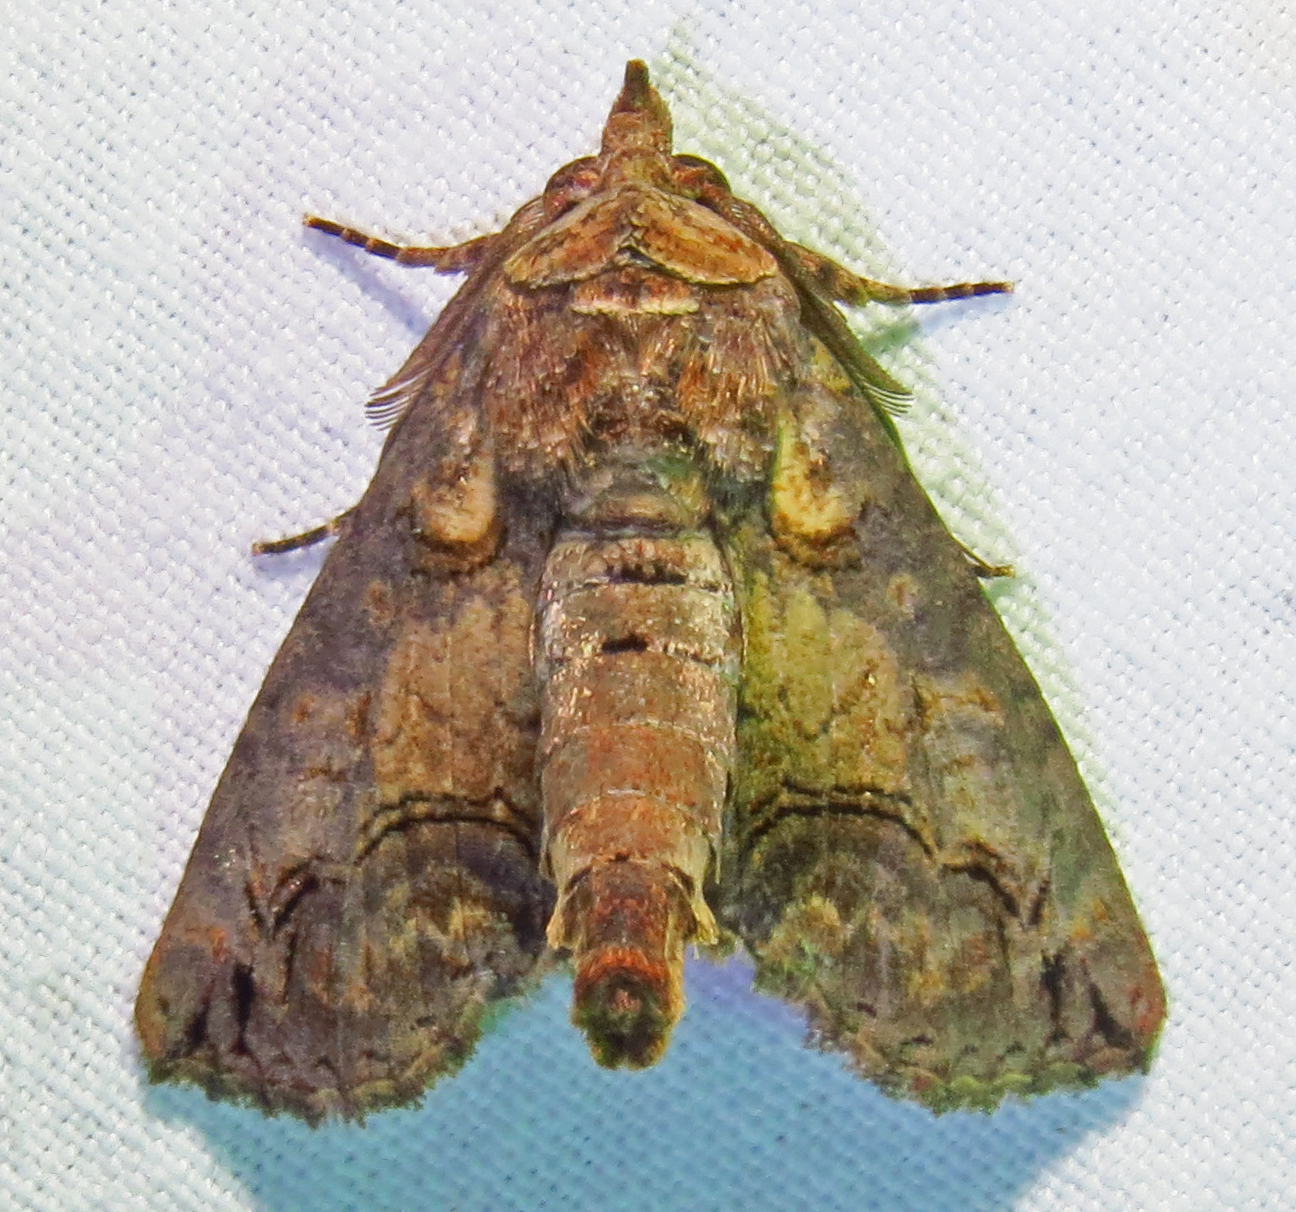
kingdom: Animalia
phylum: Arthropoda
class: Insecta
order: Lepidoptera
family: Euteliidae
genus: Paectes
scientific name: Paectes abrostoloides
